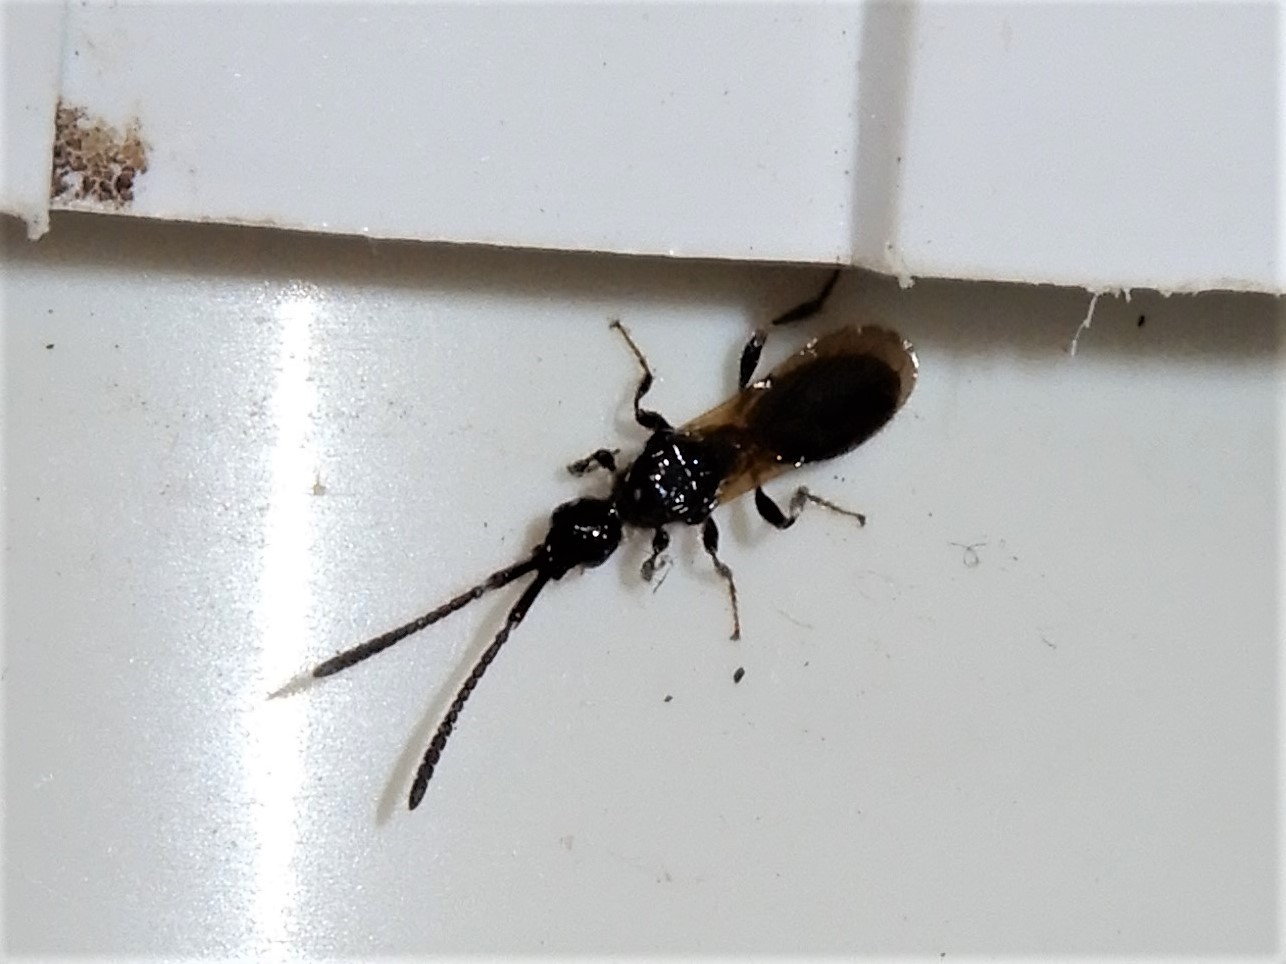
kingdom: Animalia
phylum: Arthropoda
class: Insecta
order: Hymenoptera
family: Diapriidae
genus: Neurogalesus
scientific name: Neurogalesus carinatus
